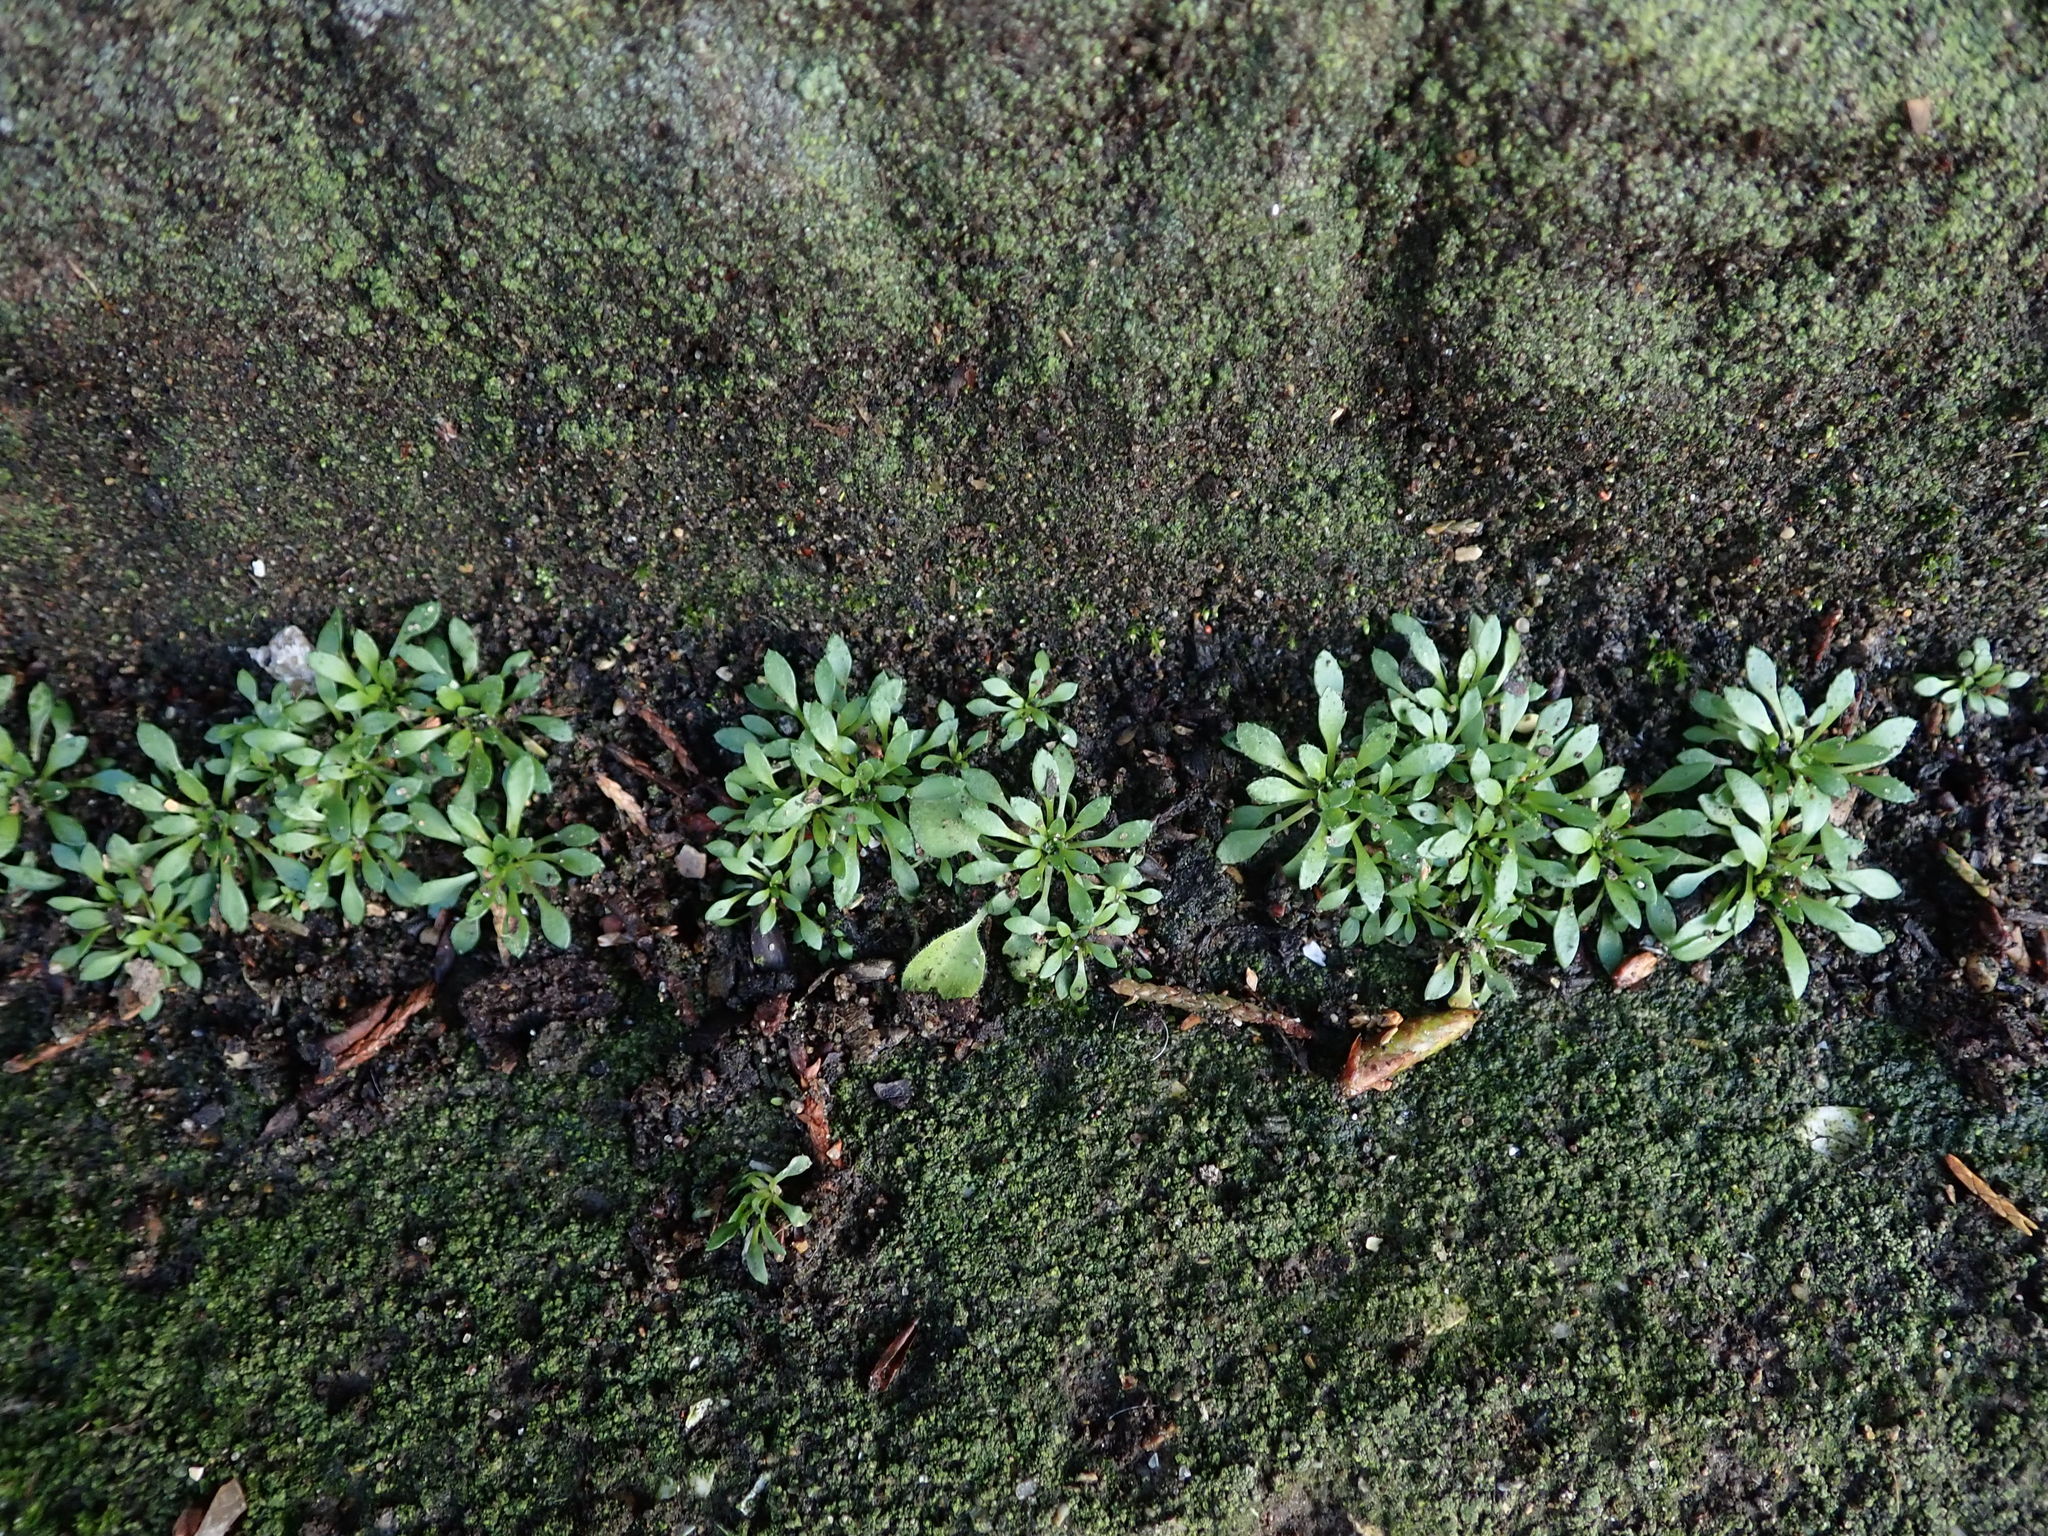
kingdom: Plantae
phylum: Tracheophyta
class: Magnoliopsida
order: Brassicales
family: Brassicaceae
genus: Draba
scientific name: Draba verna
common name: Spring draba
